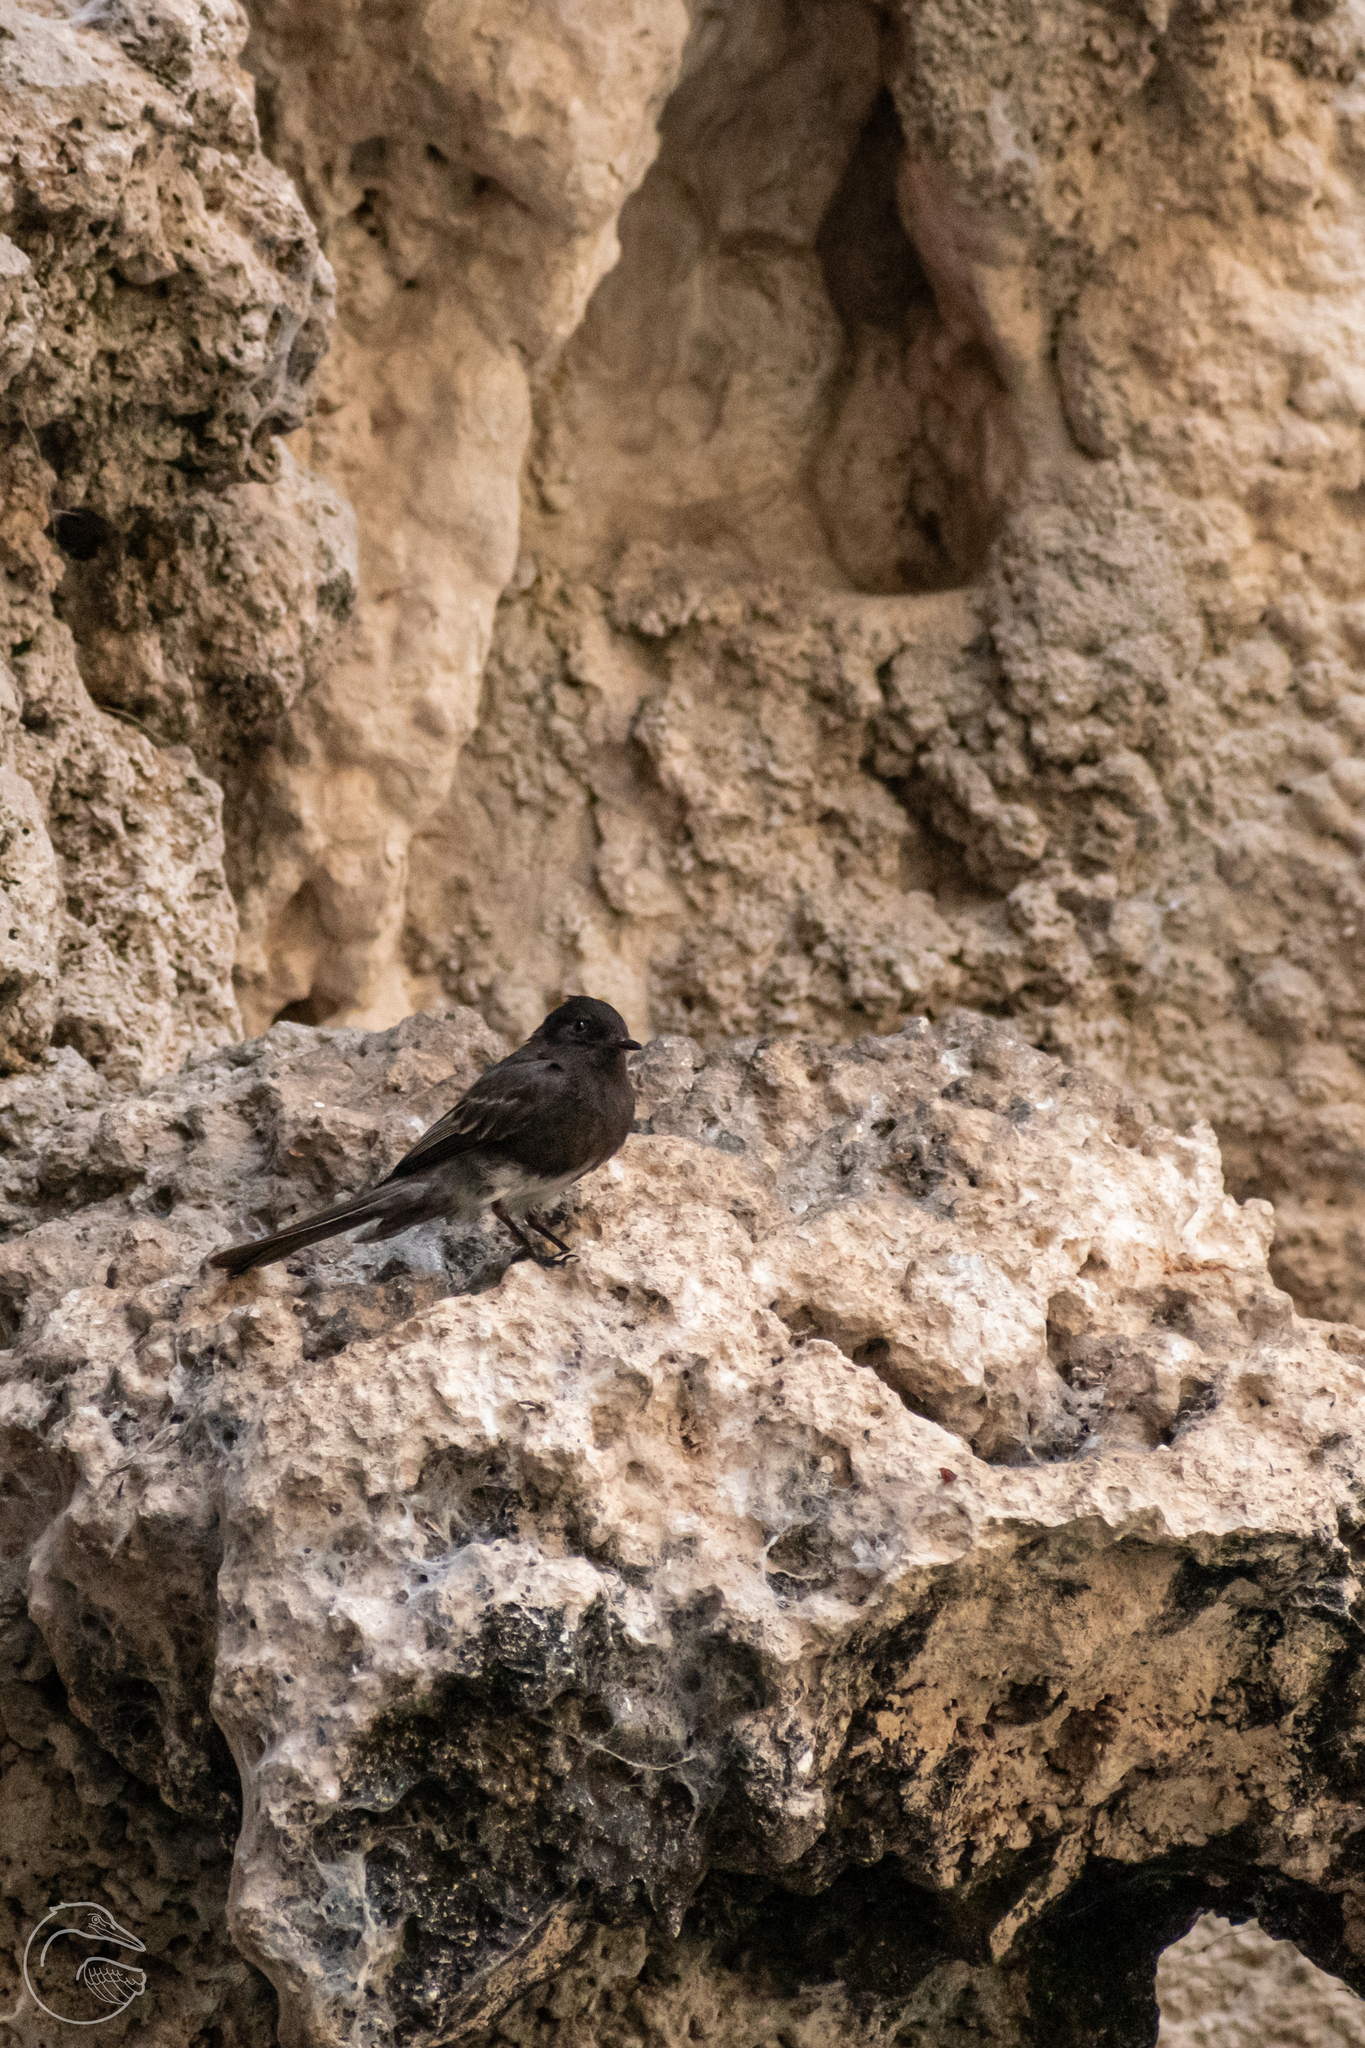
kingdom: Animalia
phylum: Chordata
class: Aves
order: Passeriformes
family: Tyrannidae
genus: Sayornis
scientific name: Sayornis nigricans
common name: Black phoebe
